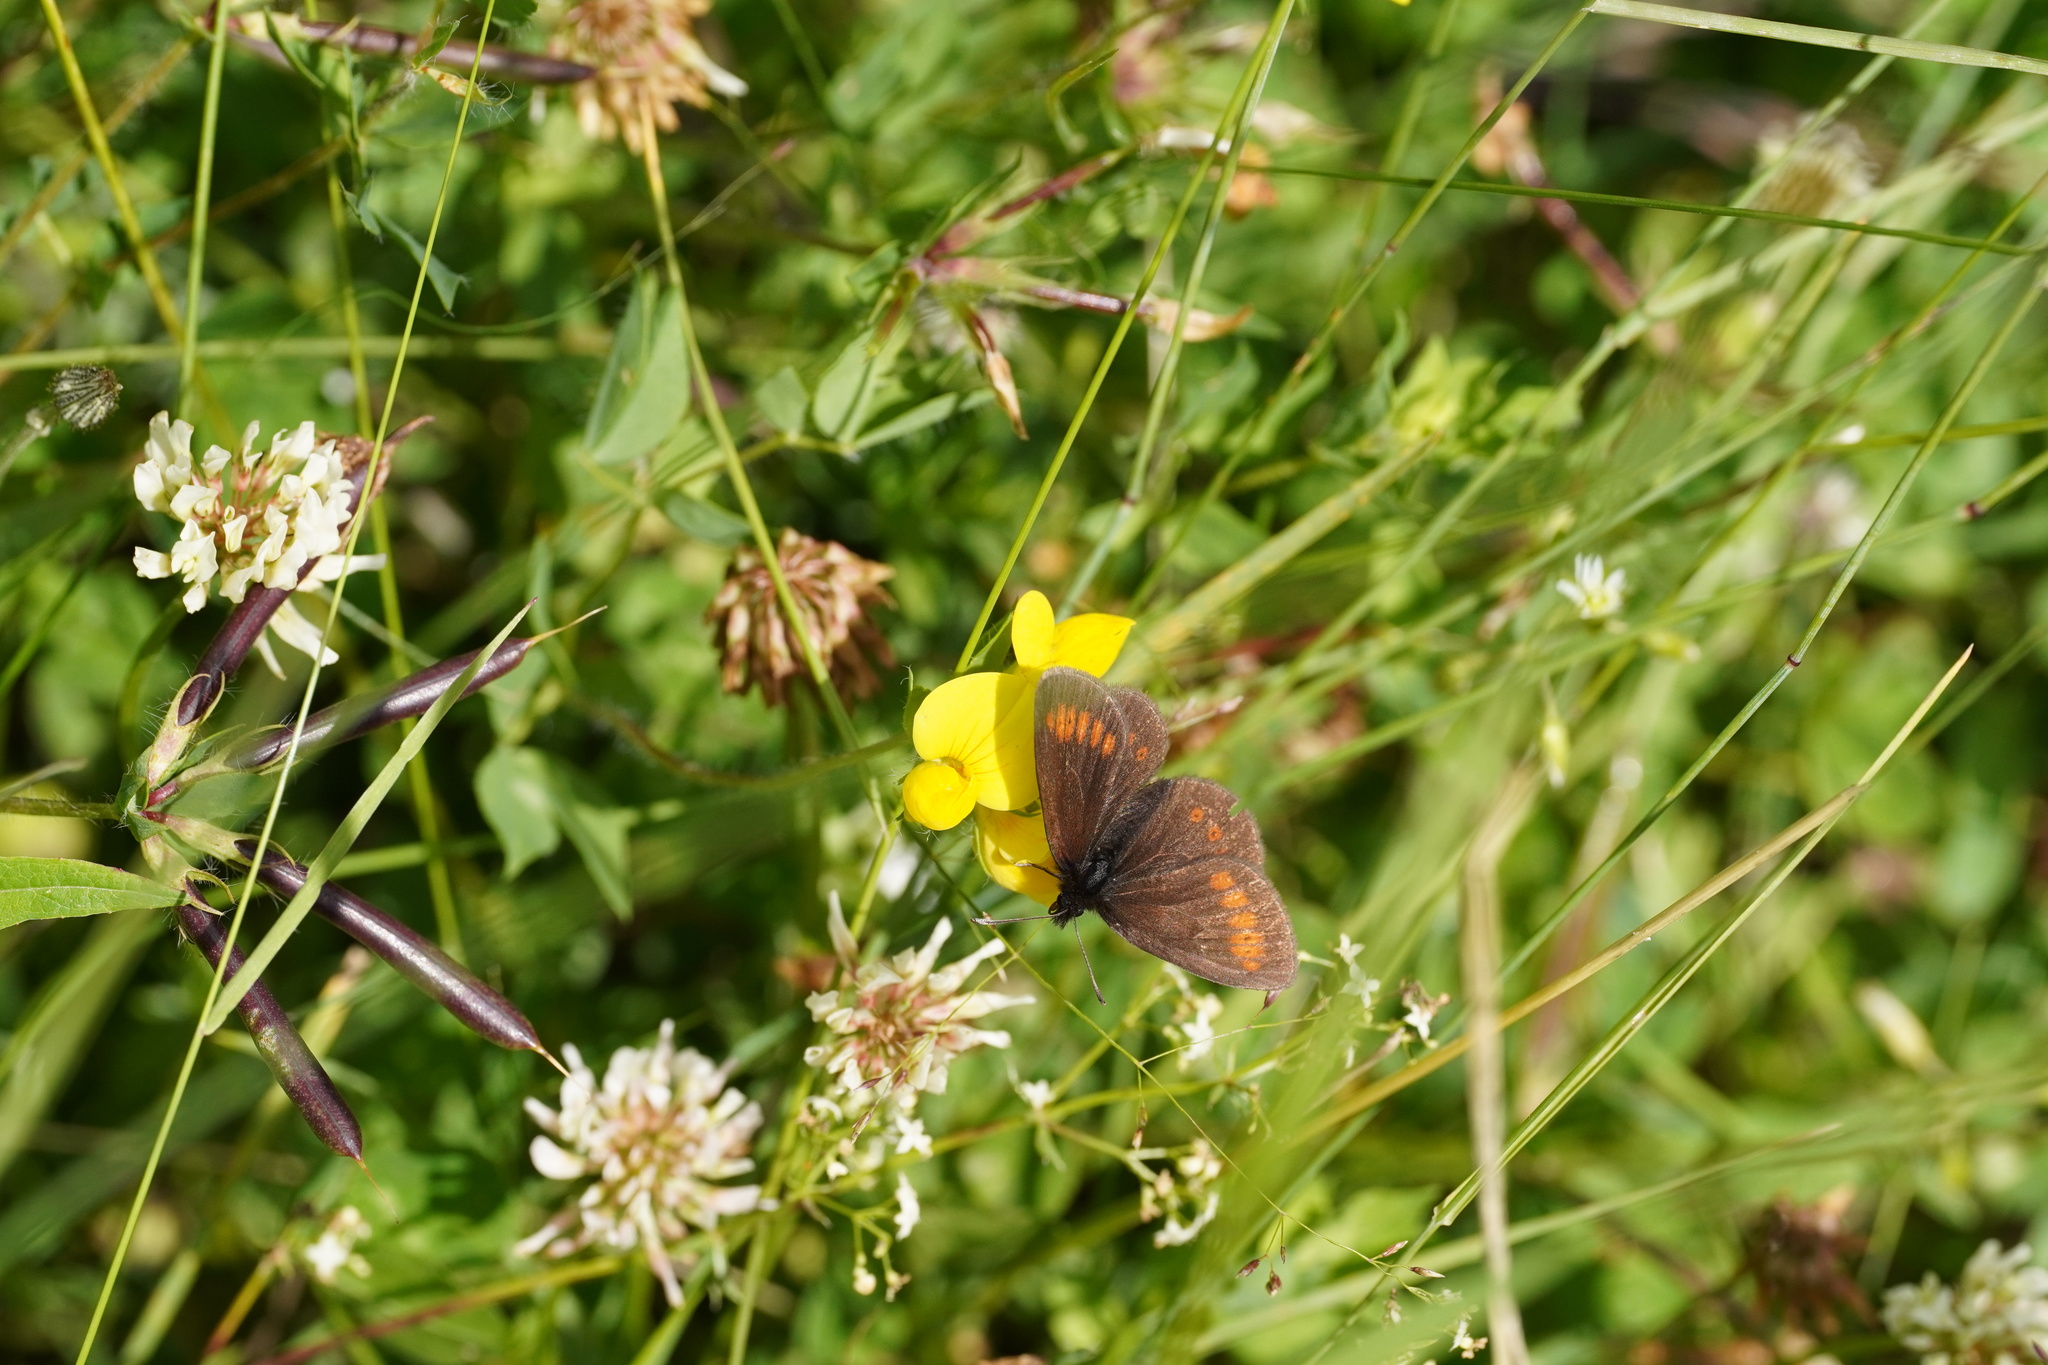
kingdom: Animalia
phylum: Arthropoda
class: Insecta
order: Lepidoptera
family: Nymphalidae
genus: Erebia
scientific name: Erebia melampus
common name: Lesser mountain ringlet
